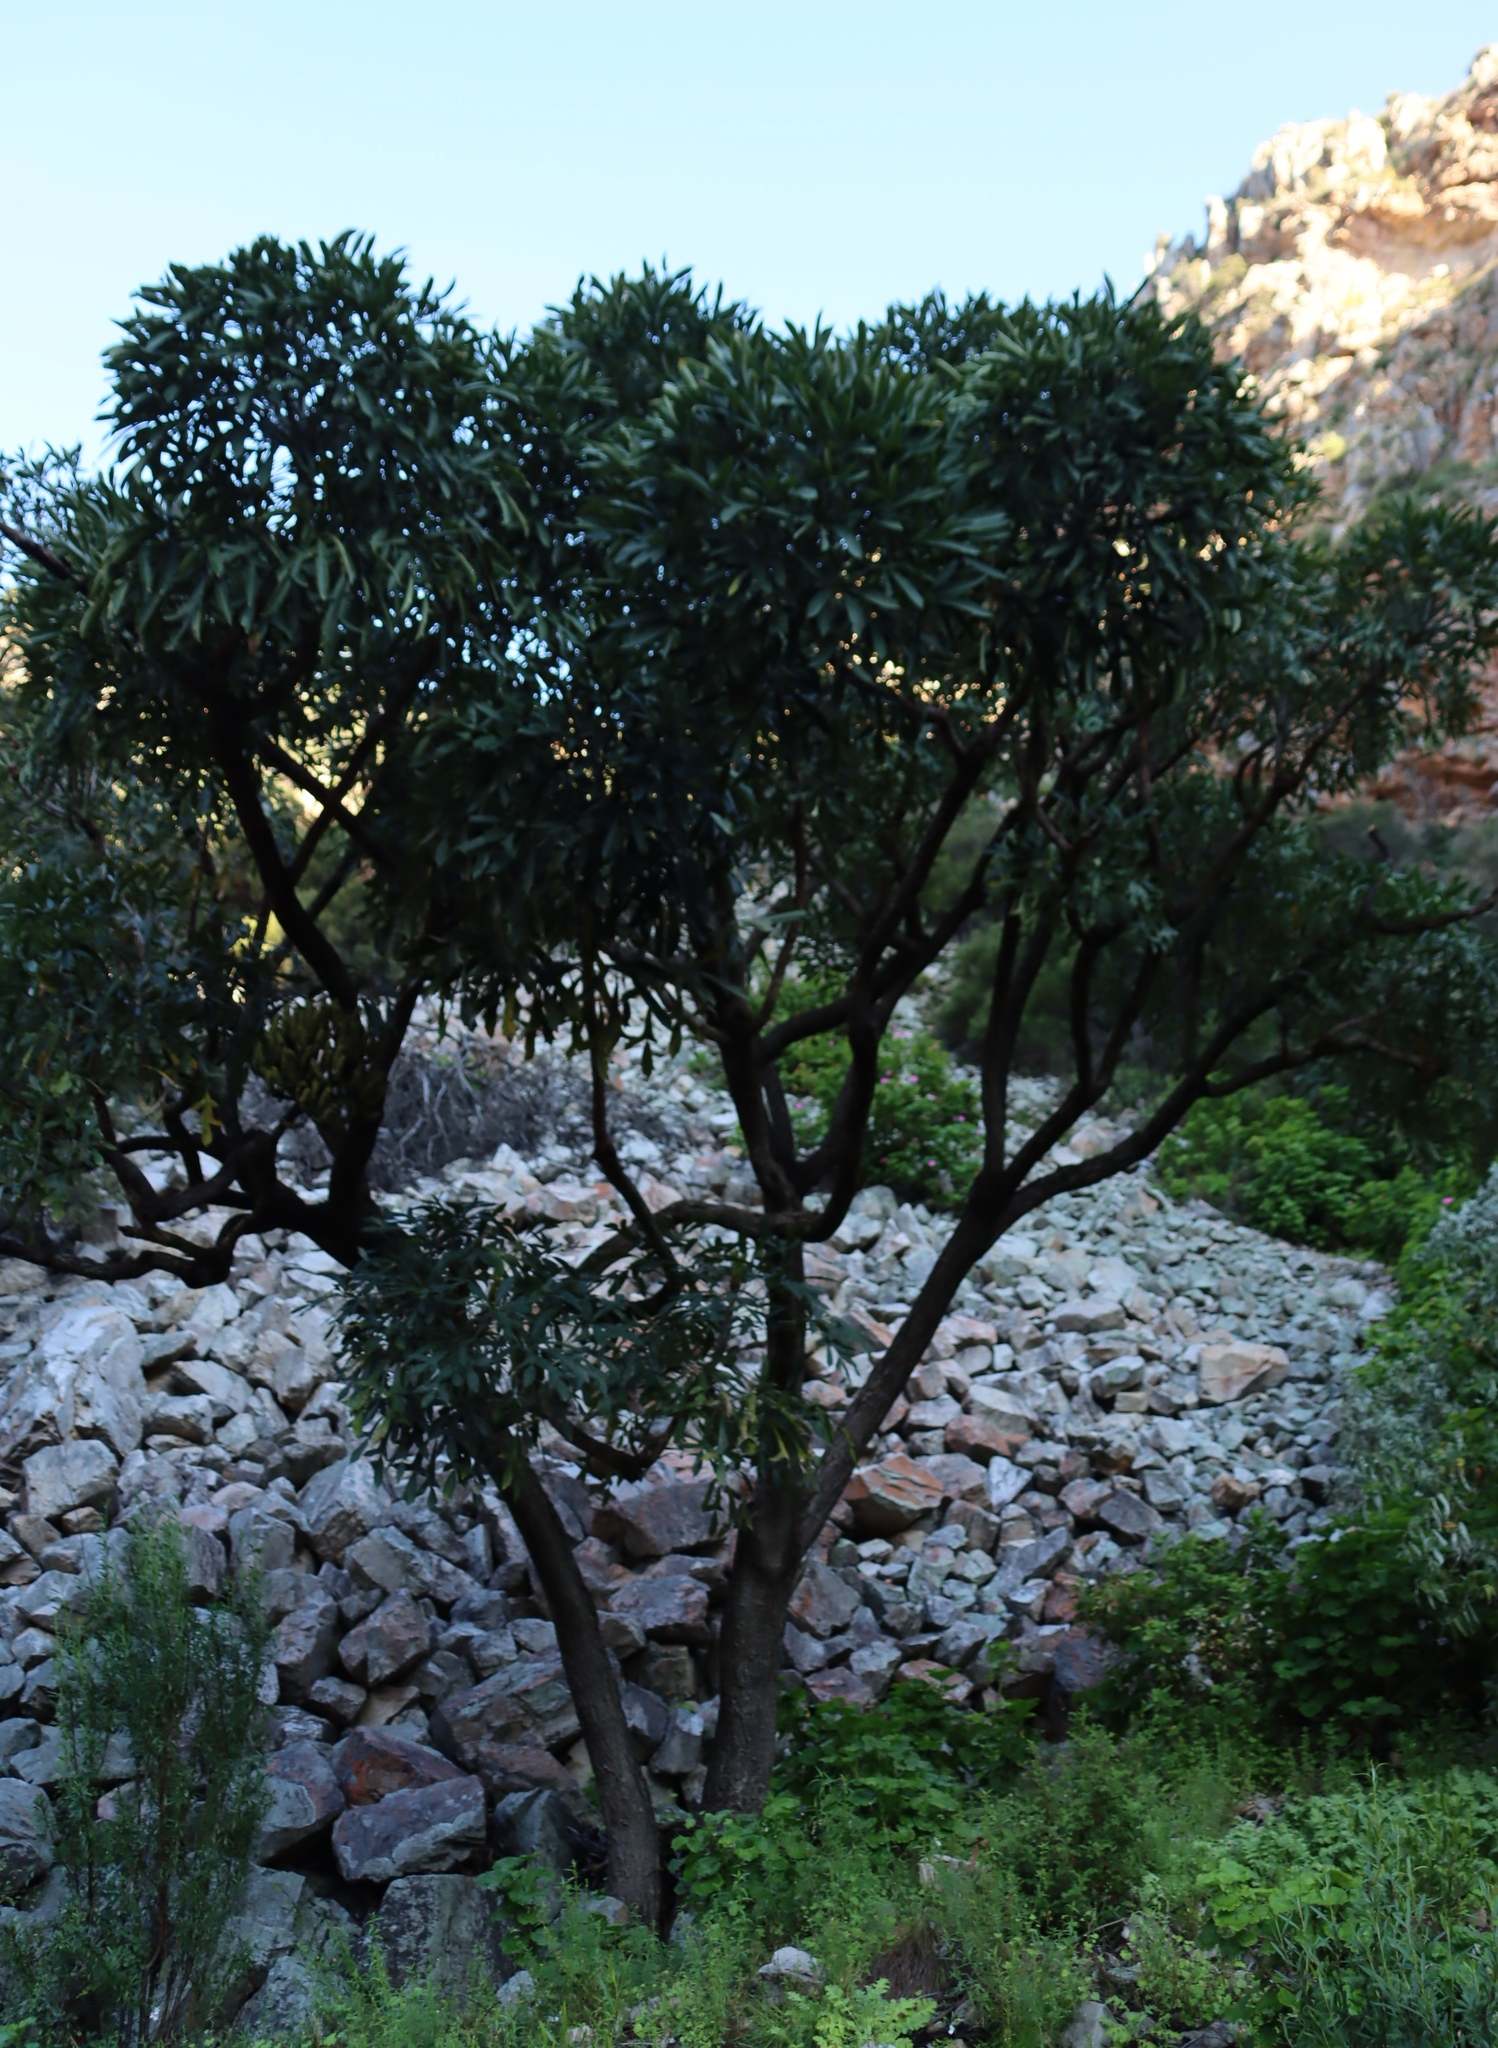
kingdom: Plantae
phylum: Tracheophyta
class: Magnoliopsida
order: Apiales
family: Araliaceae
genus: Cussonia
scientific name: Cussonia spicata
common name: Common cabbagetree
